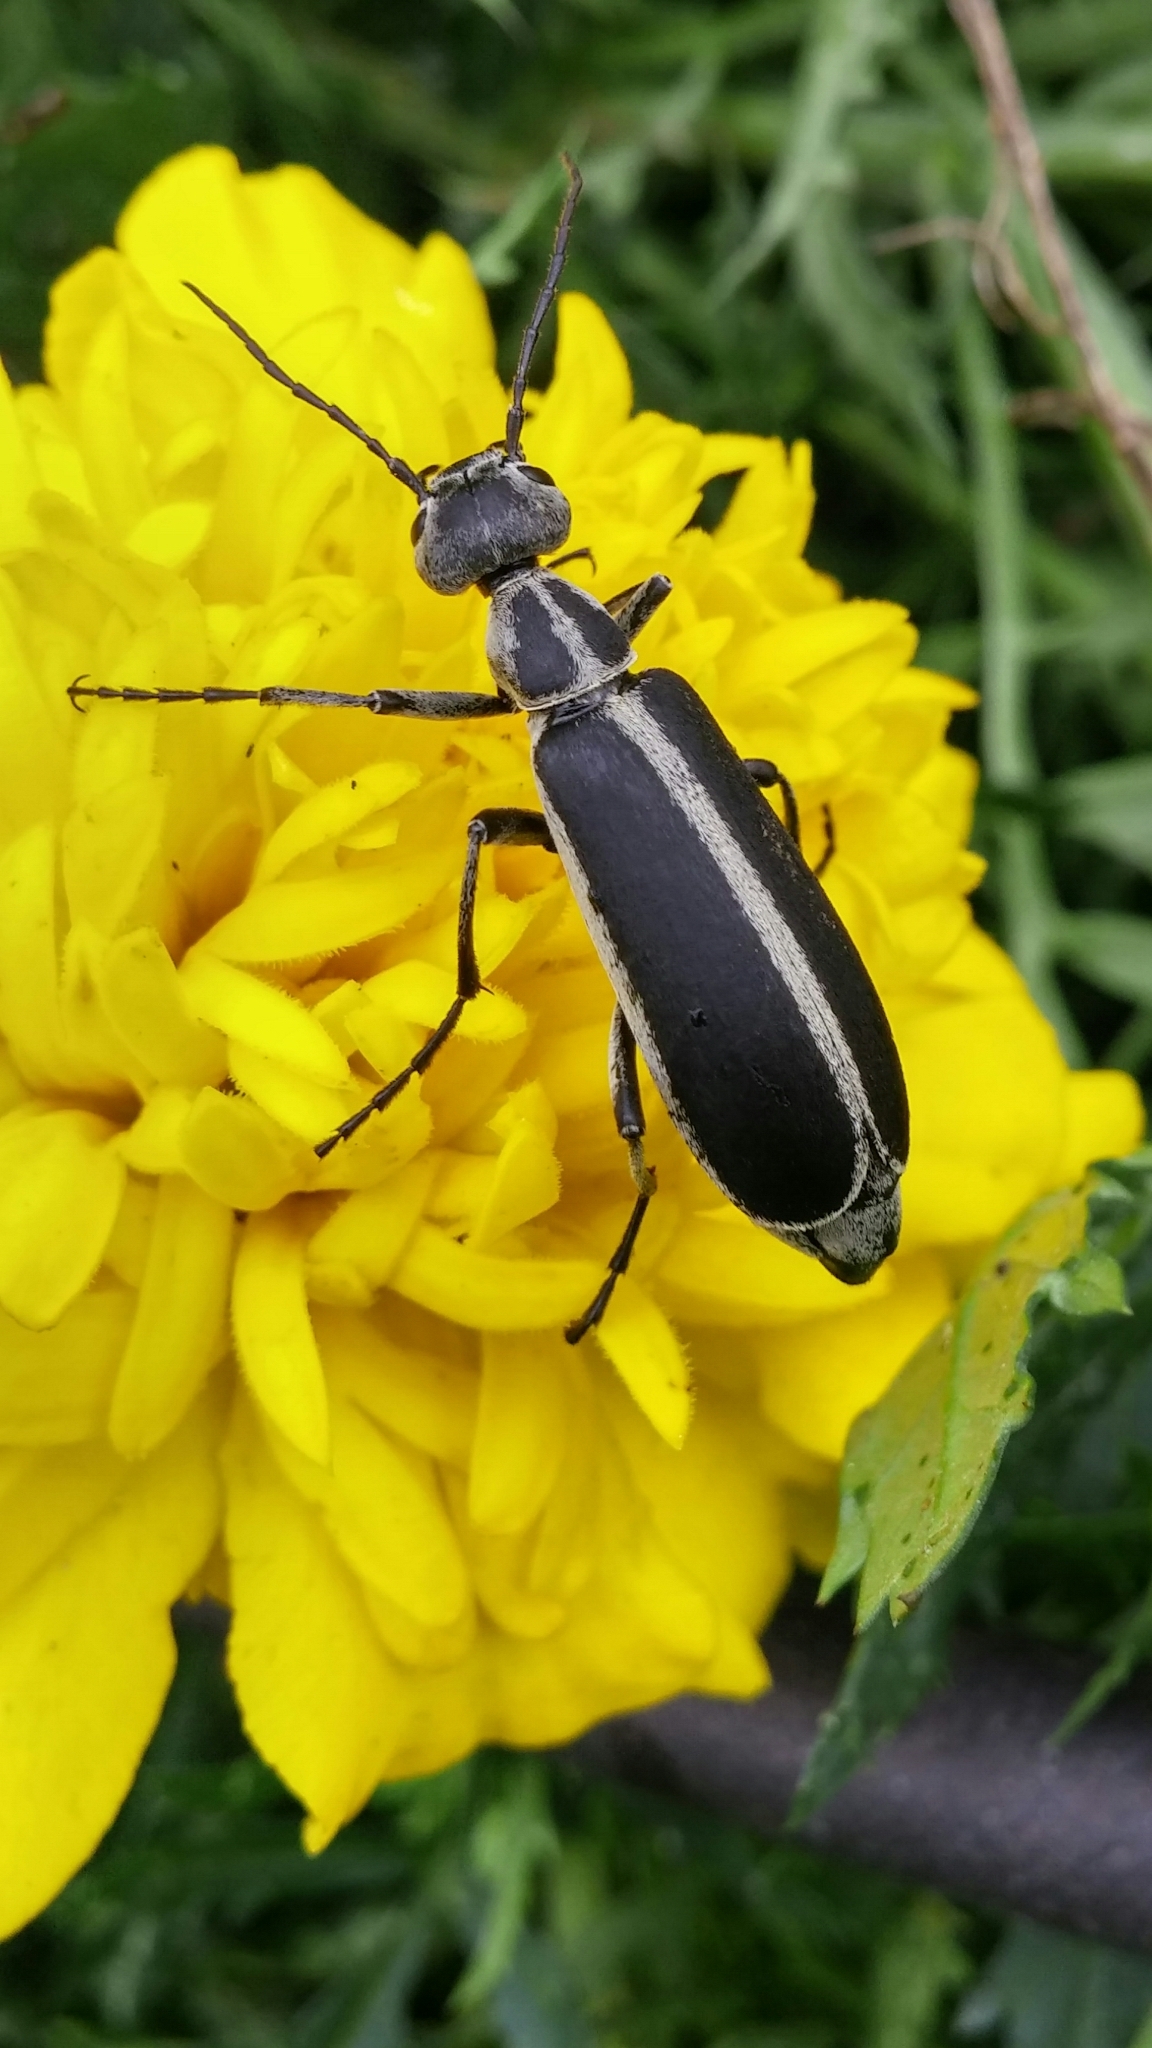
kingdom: Animalia
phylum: Arthropoda
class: Insecta
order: Coleoptera
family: Meloidae
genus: Epicauta
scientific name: Epicauta funebris
